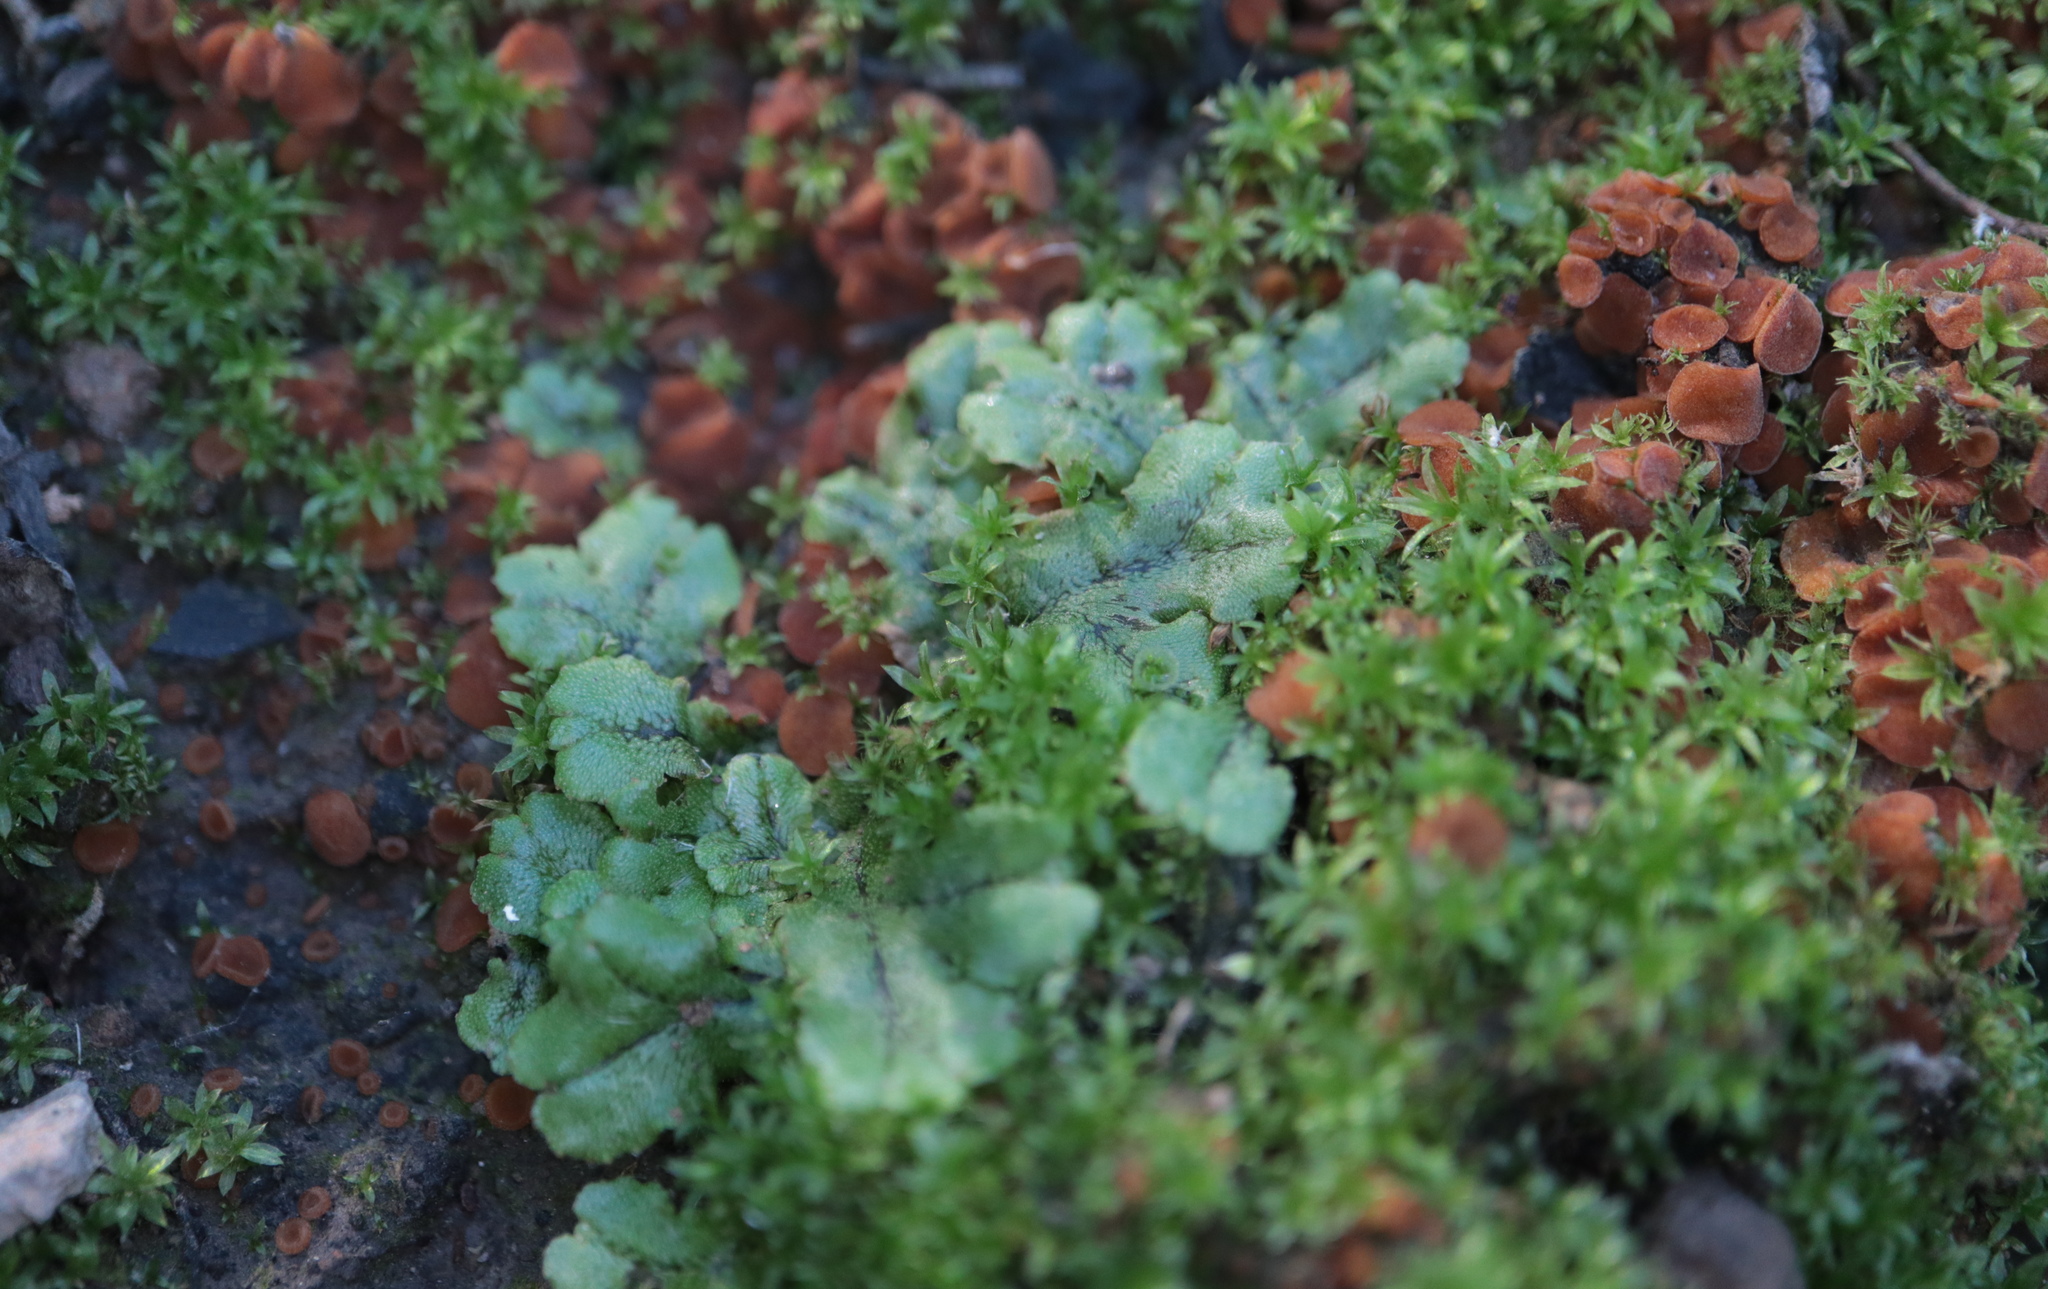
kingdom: Plantae
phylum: Marchantiophyta
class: Marchantiopsida
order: Marchantiales
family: Marchantiaceae
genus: Marchantia
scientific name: Marchantia polymorpha
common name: Common liverwort
